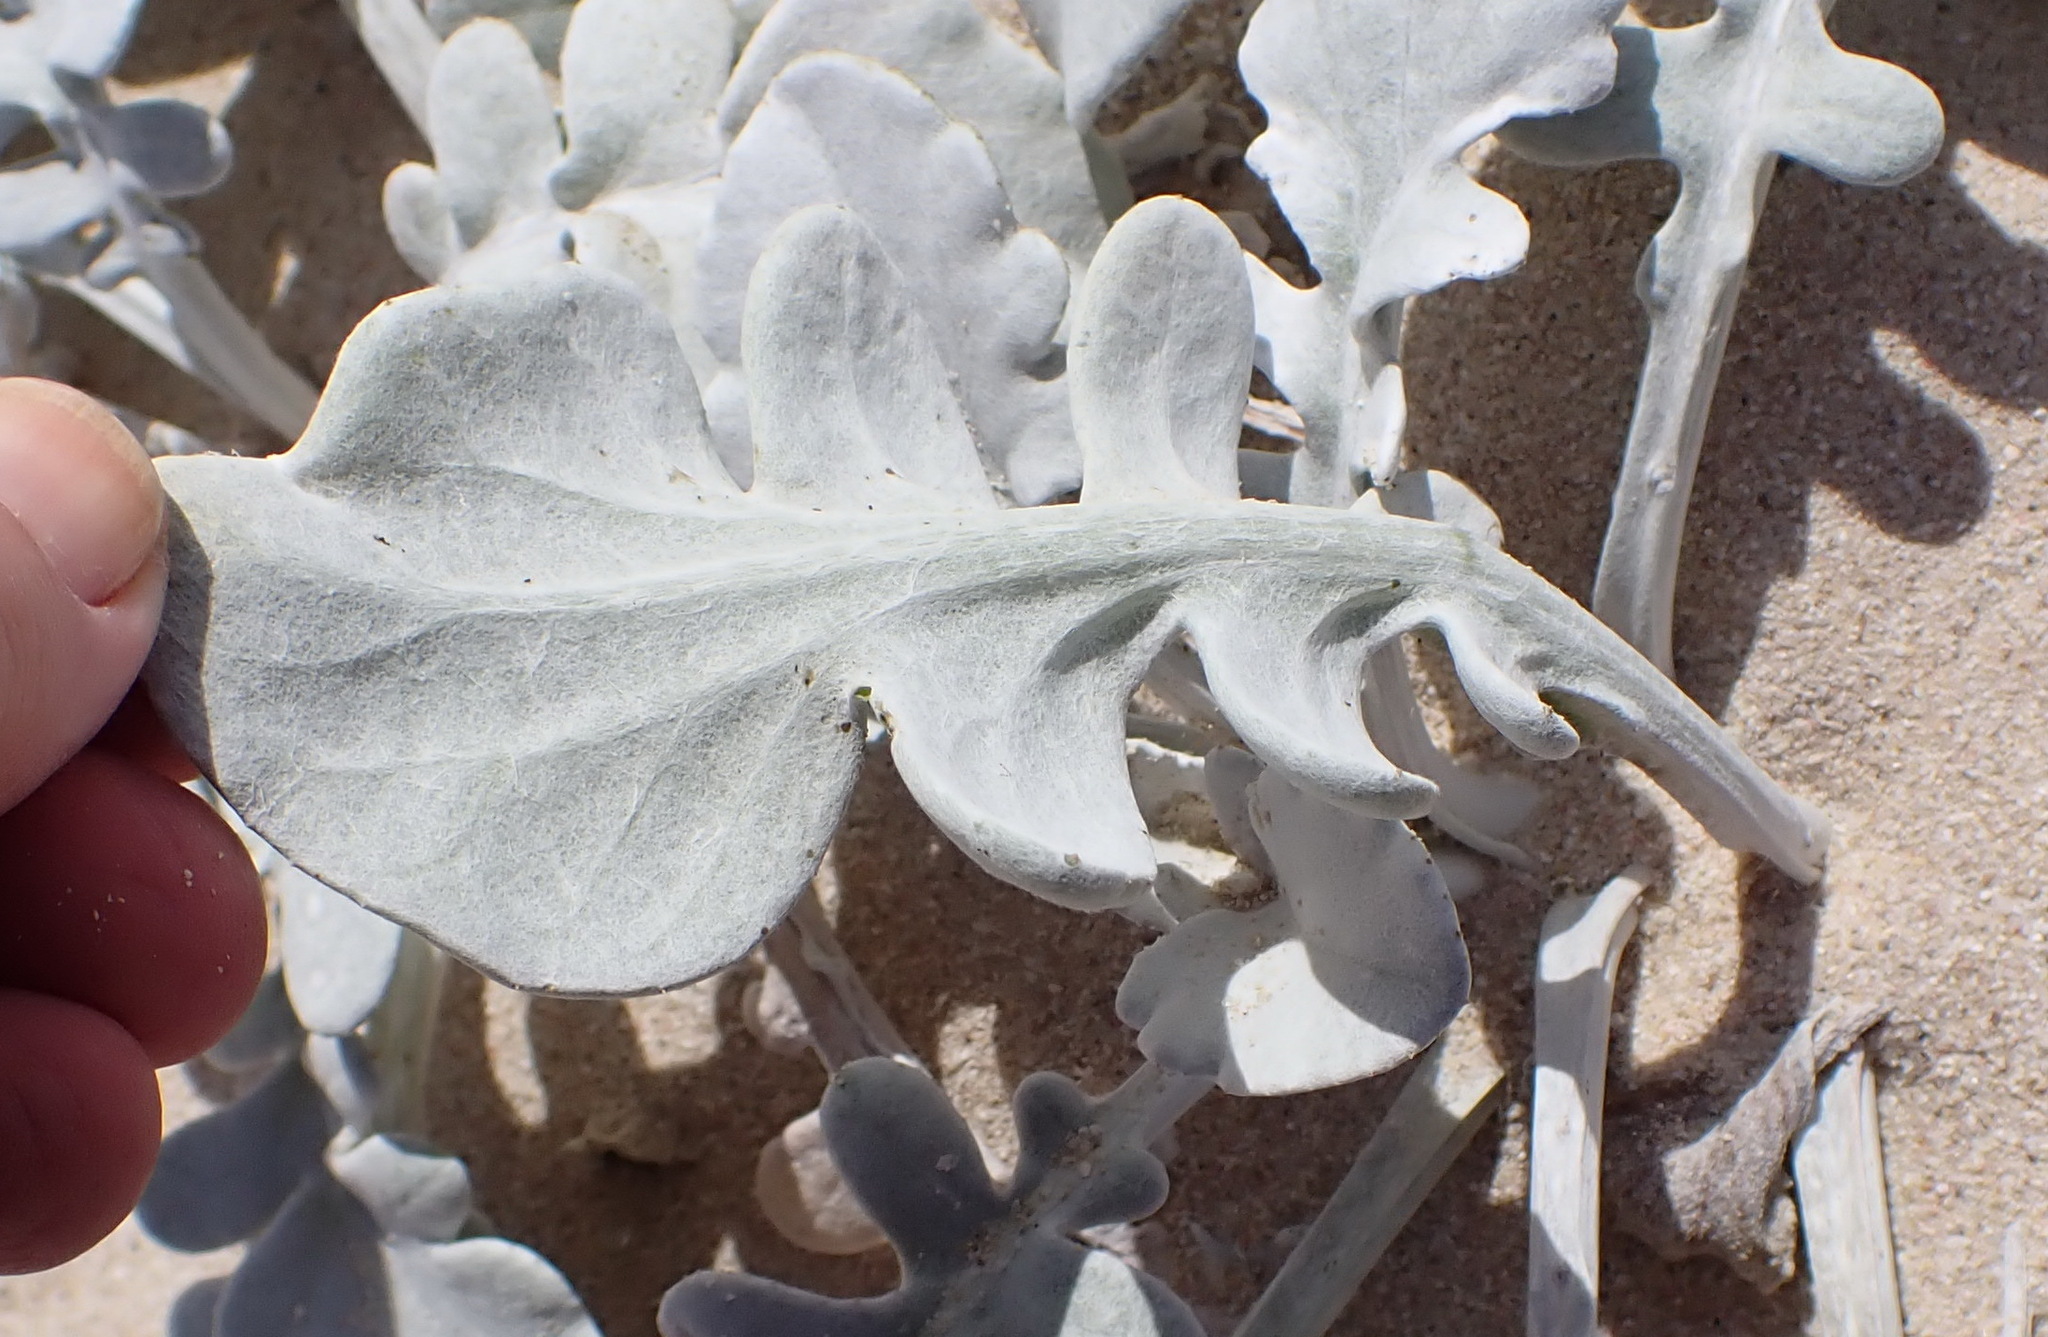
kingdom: Plantae
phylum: Tracheophyta
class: Magnoliopsida
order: Asterales
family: Asteraceae
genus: Arctotheca
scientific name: Arctotheca populifolia
